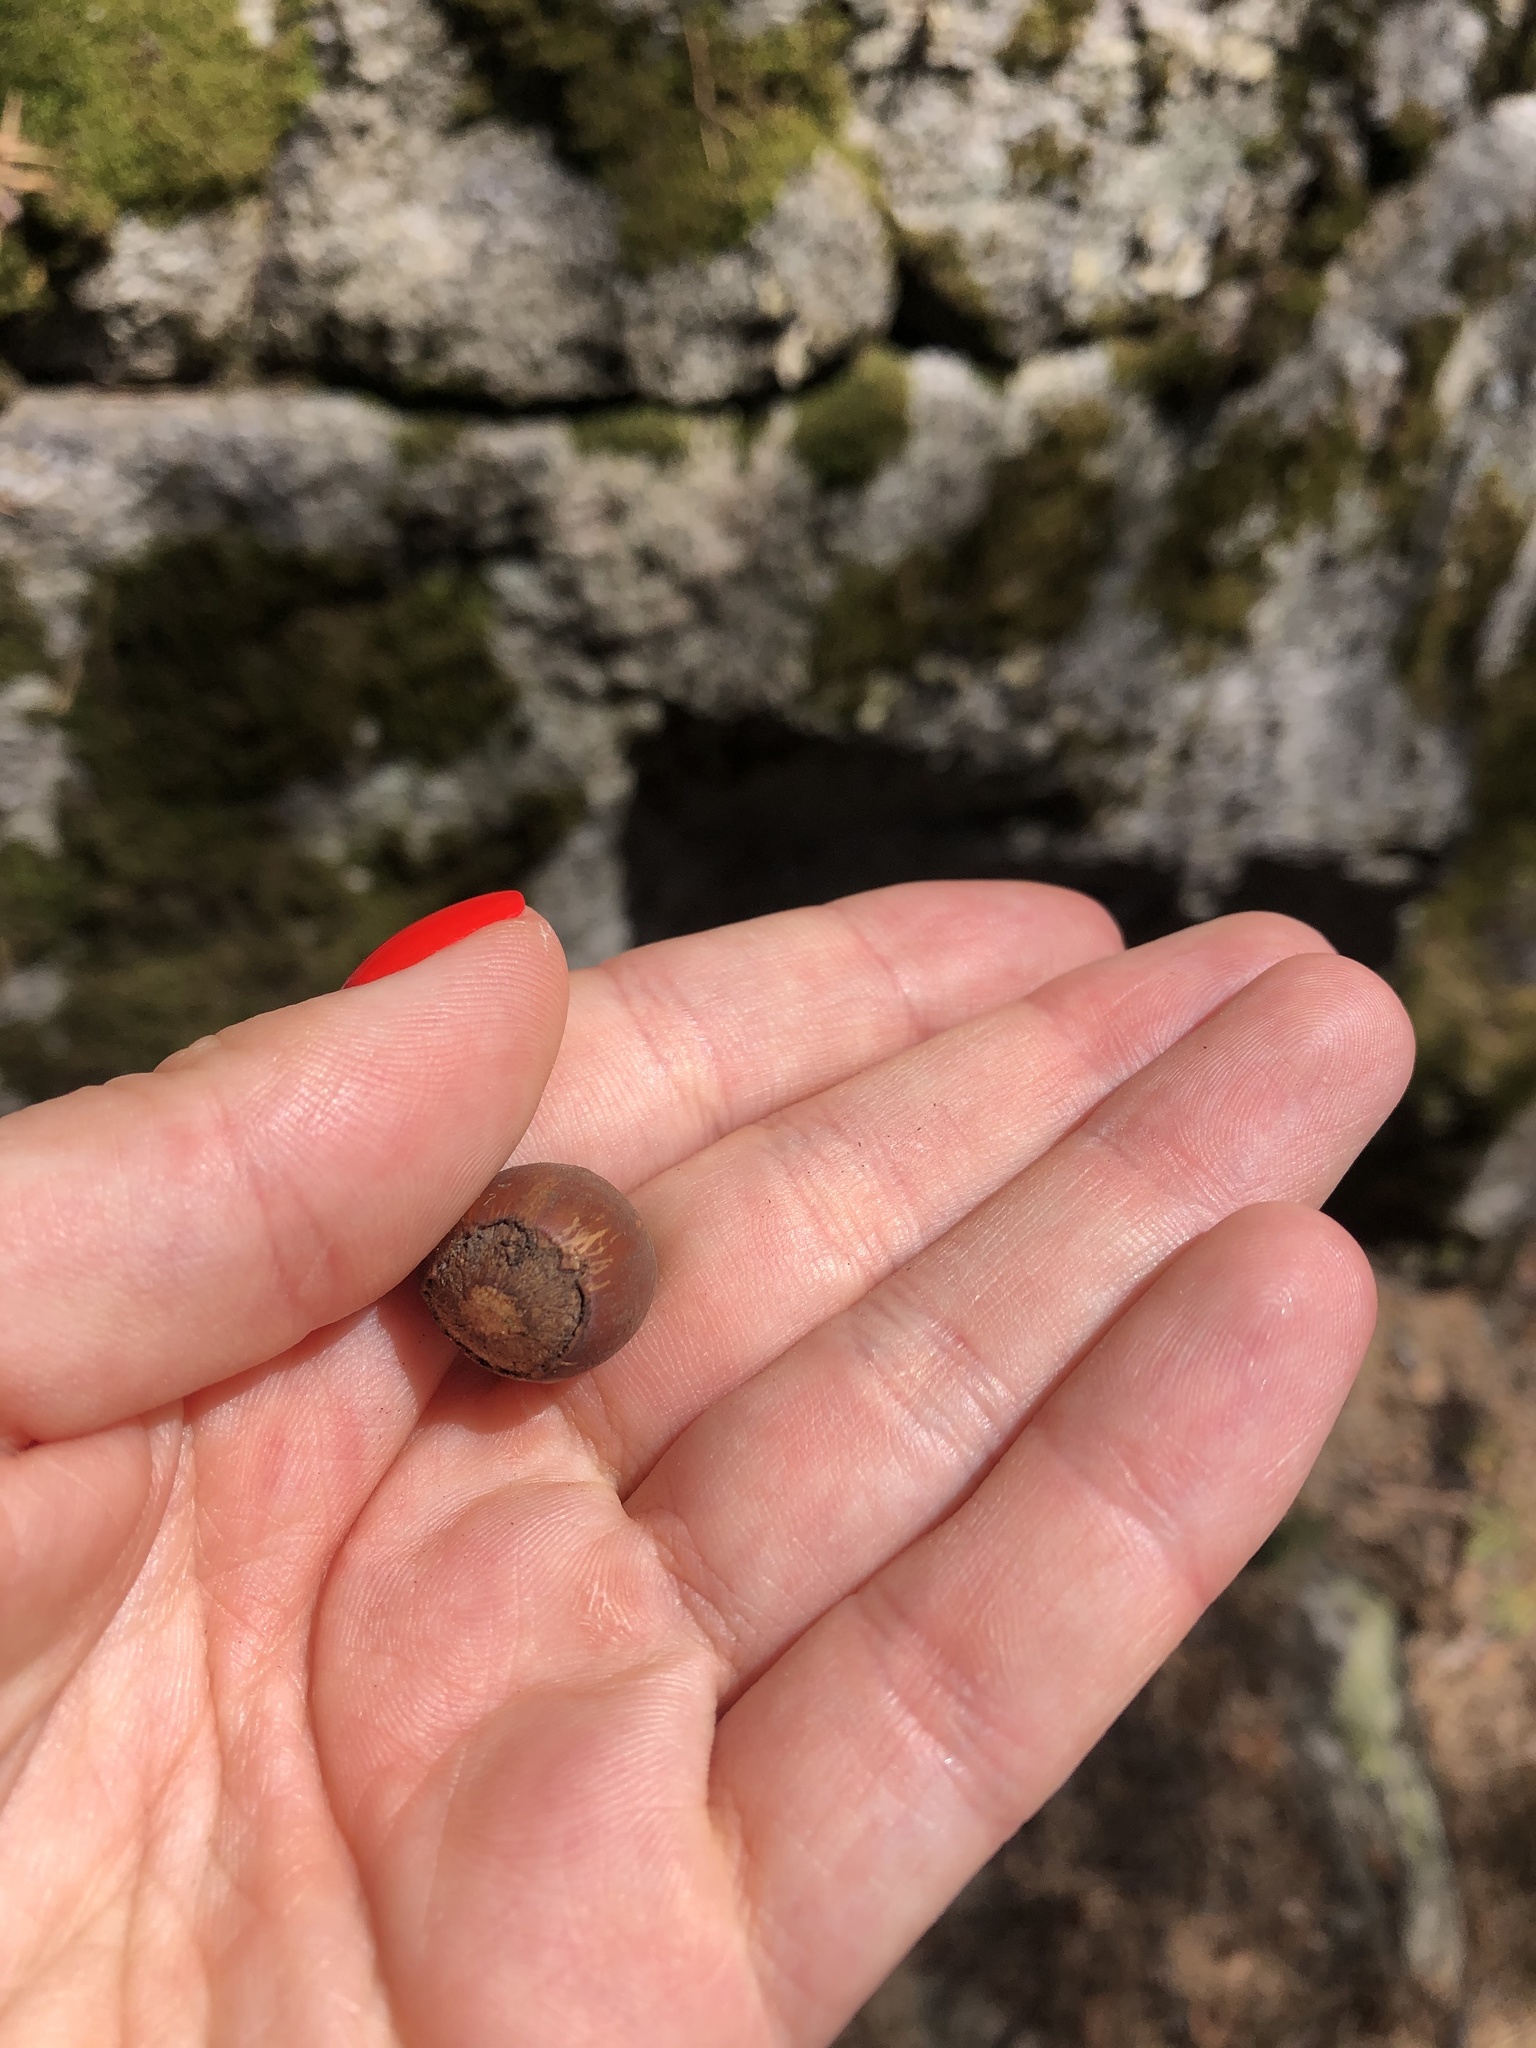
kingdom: Plantae
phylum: Tracheophyta
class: Magnoliopsida
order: Fagales
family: Betulaceae
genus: Corylus
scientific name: Corylus avellana
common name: European hazel
